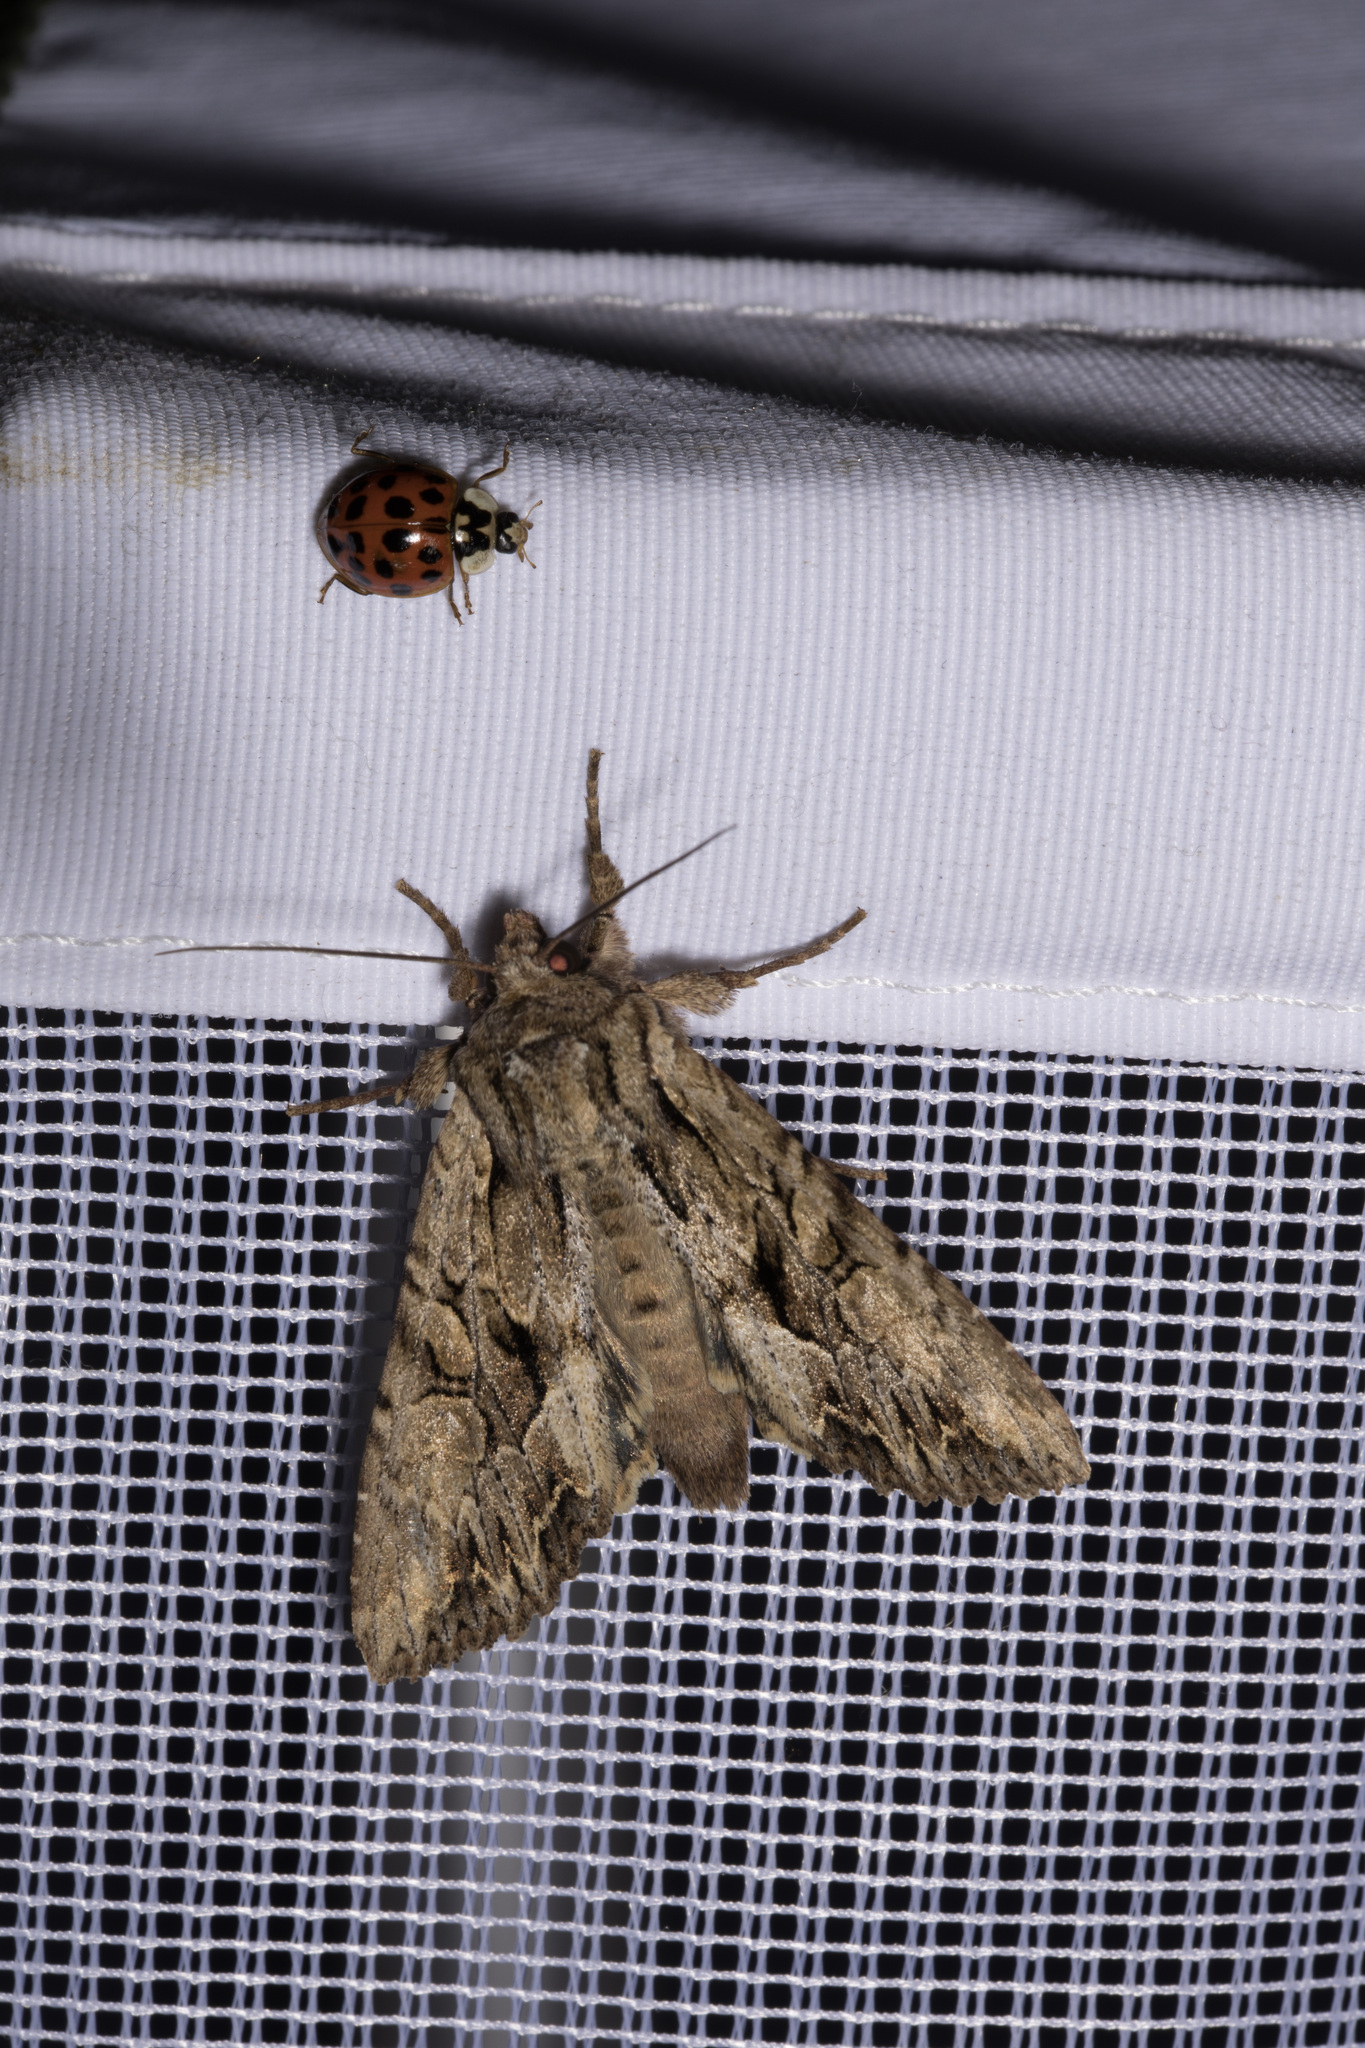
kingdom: Animalia
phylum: Arthropoda
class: Insecta
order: Coleoptera
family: Coccinellidae
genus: Harmonia
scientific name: Harmonia axyridis
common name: Harlequin ladybird
